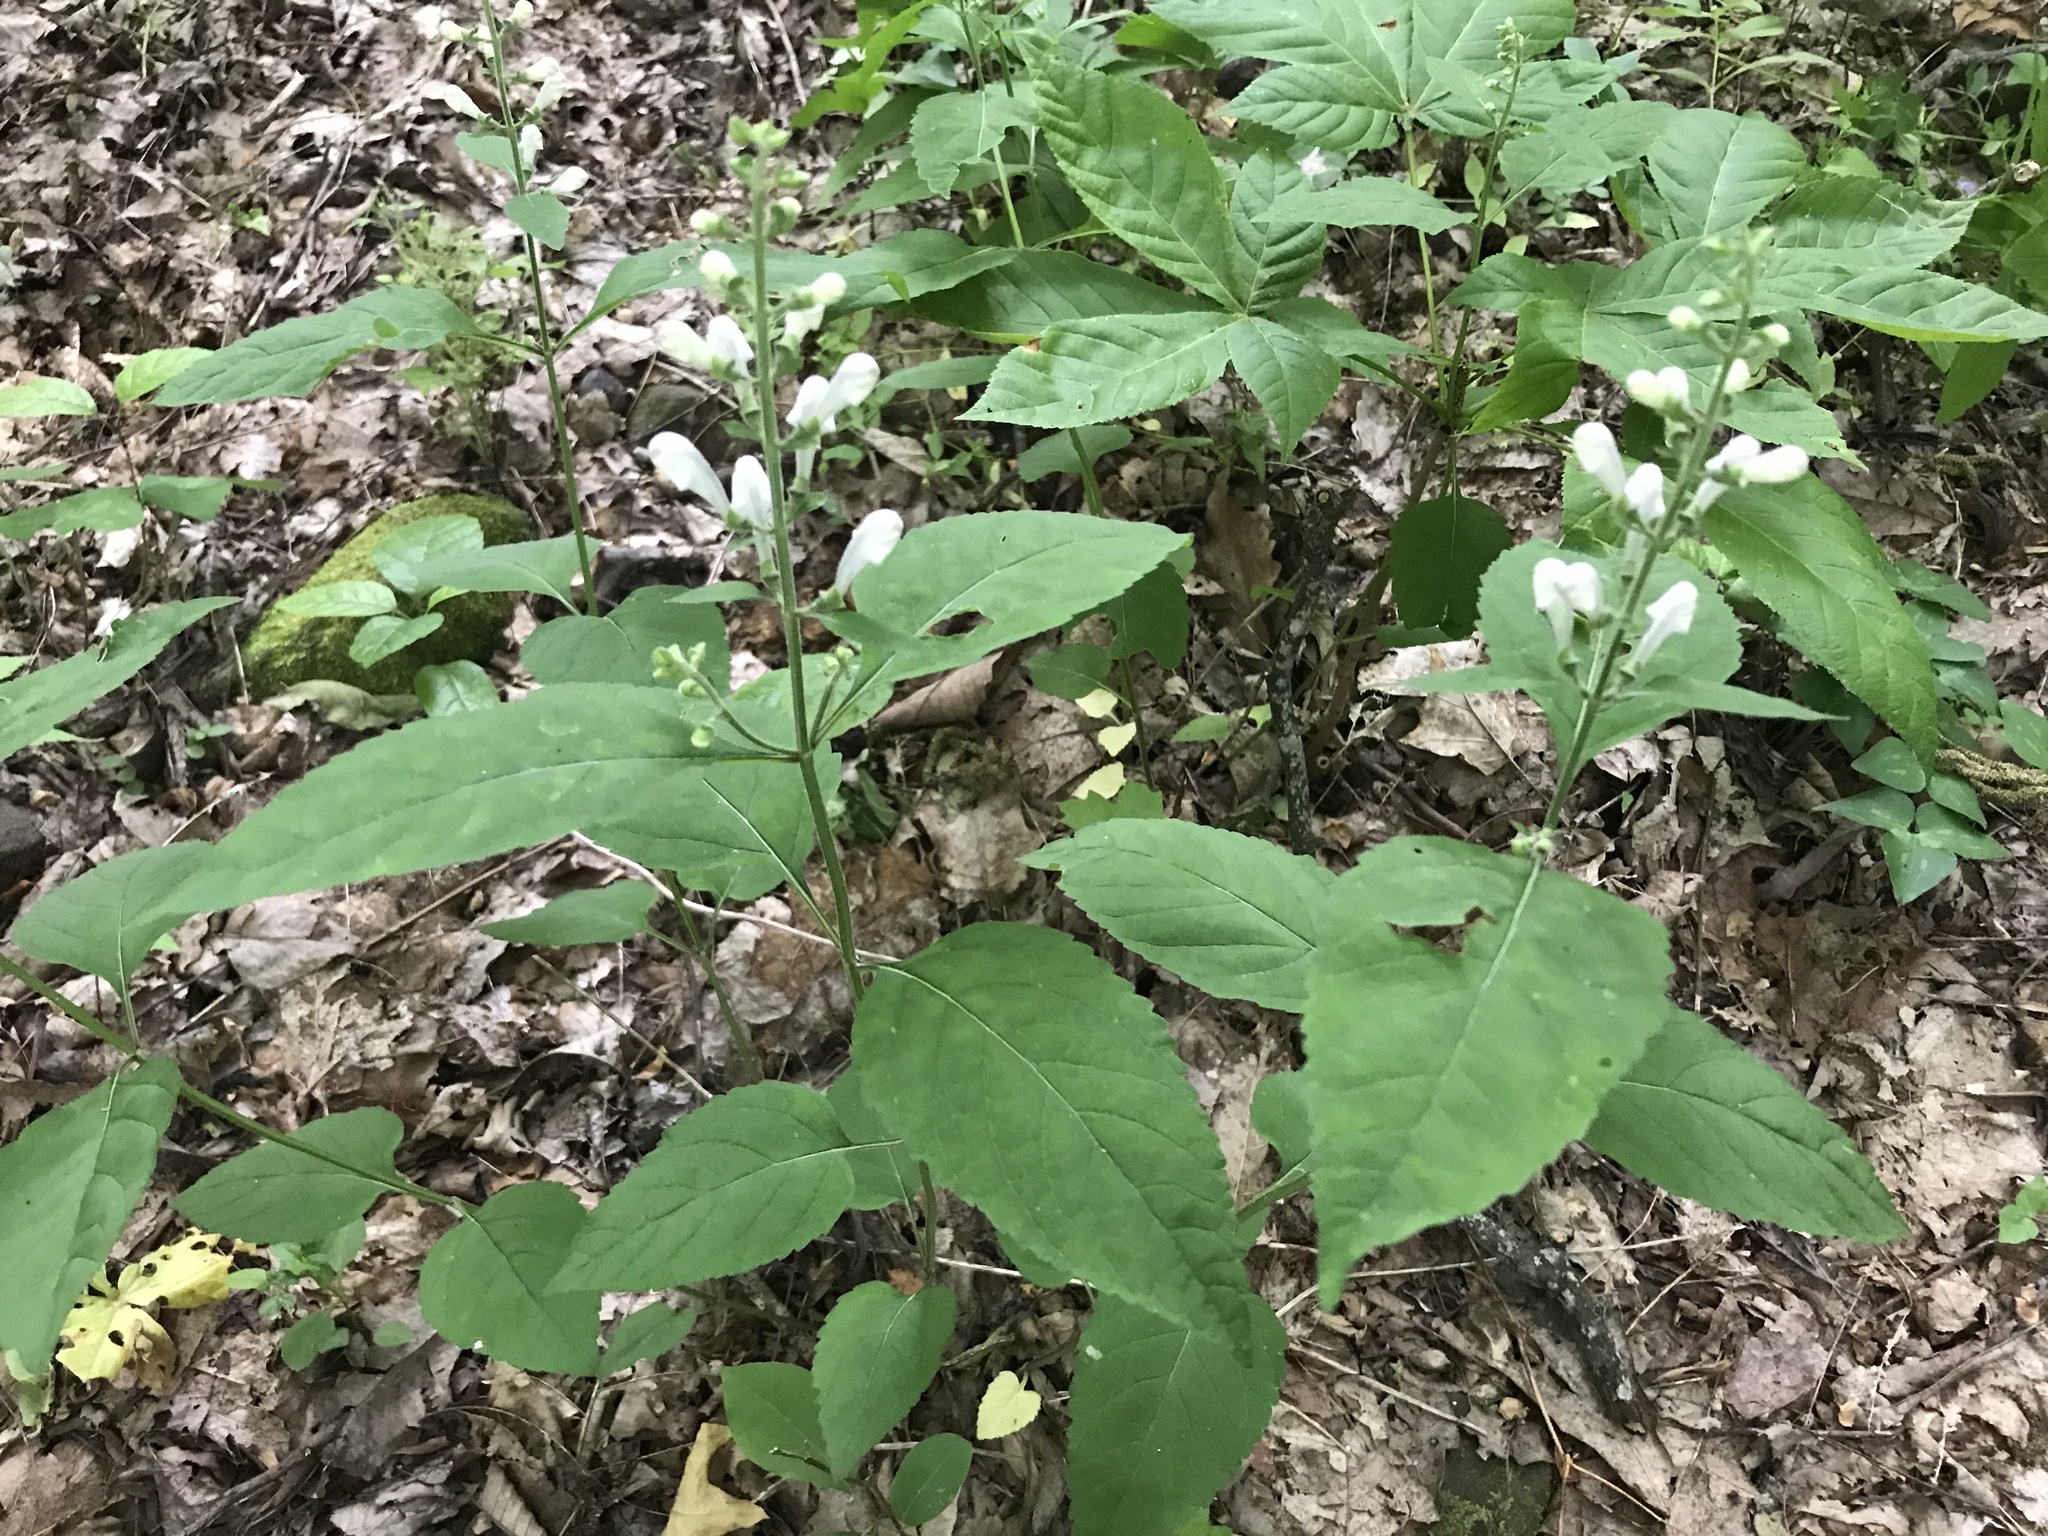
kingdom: Plantae
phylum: Tracheophyta
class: Magnoliopsida
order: Lamiales
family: Lamiaceae
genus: Scutellaria
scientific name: Scutellaria pseudoserrata
